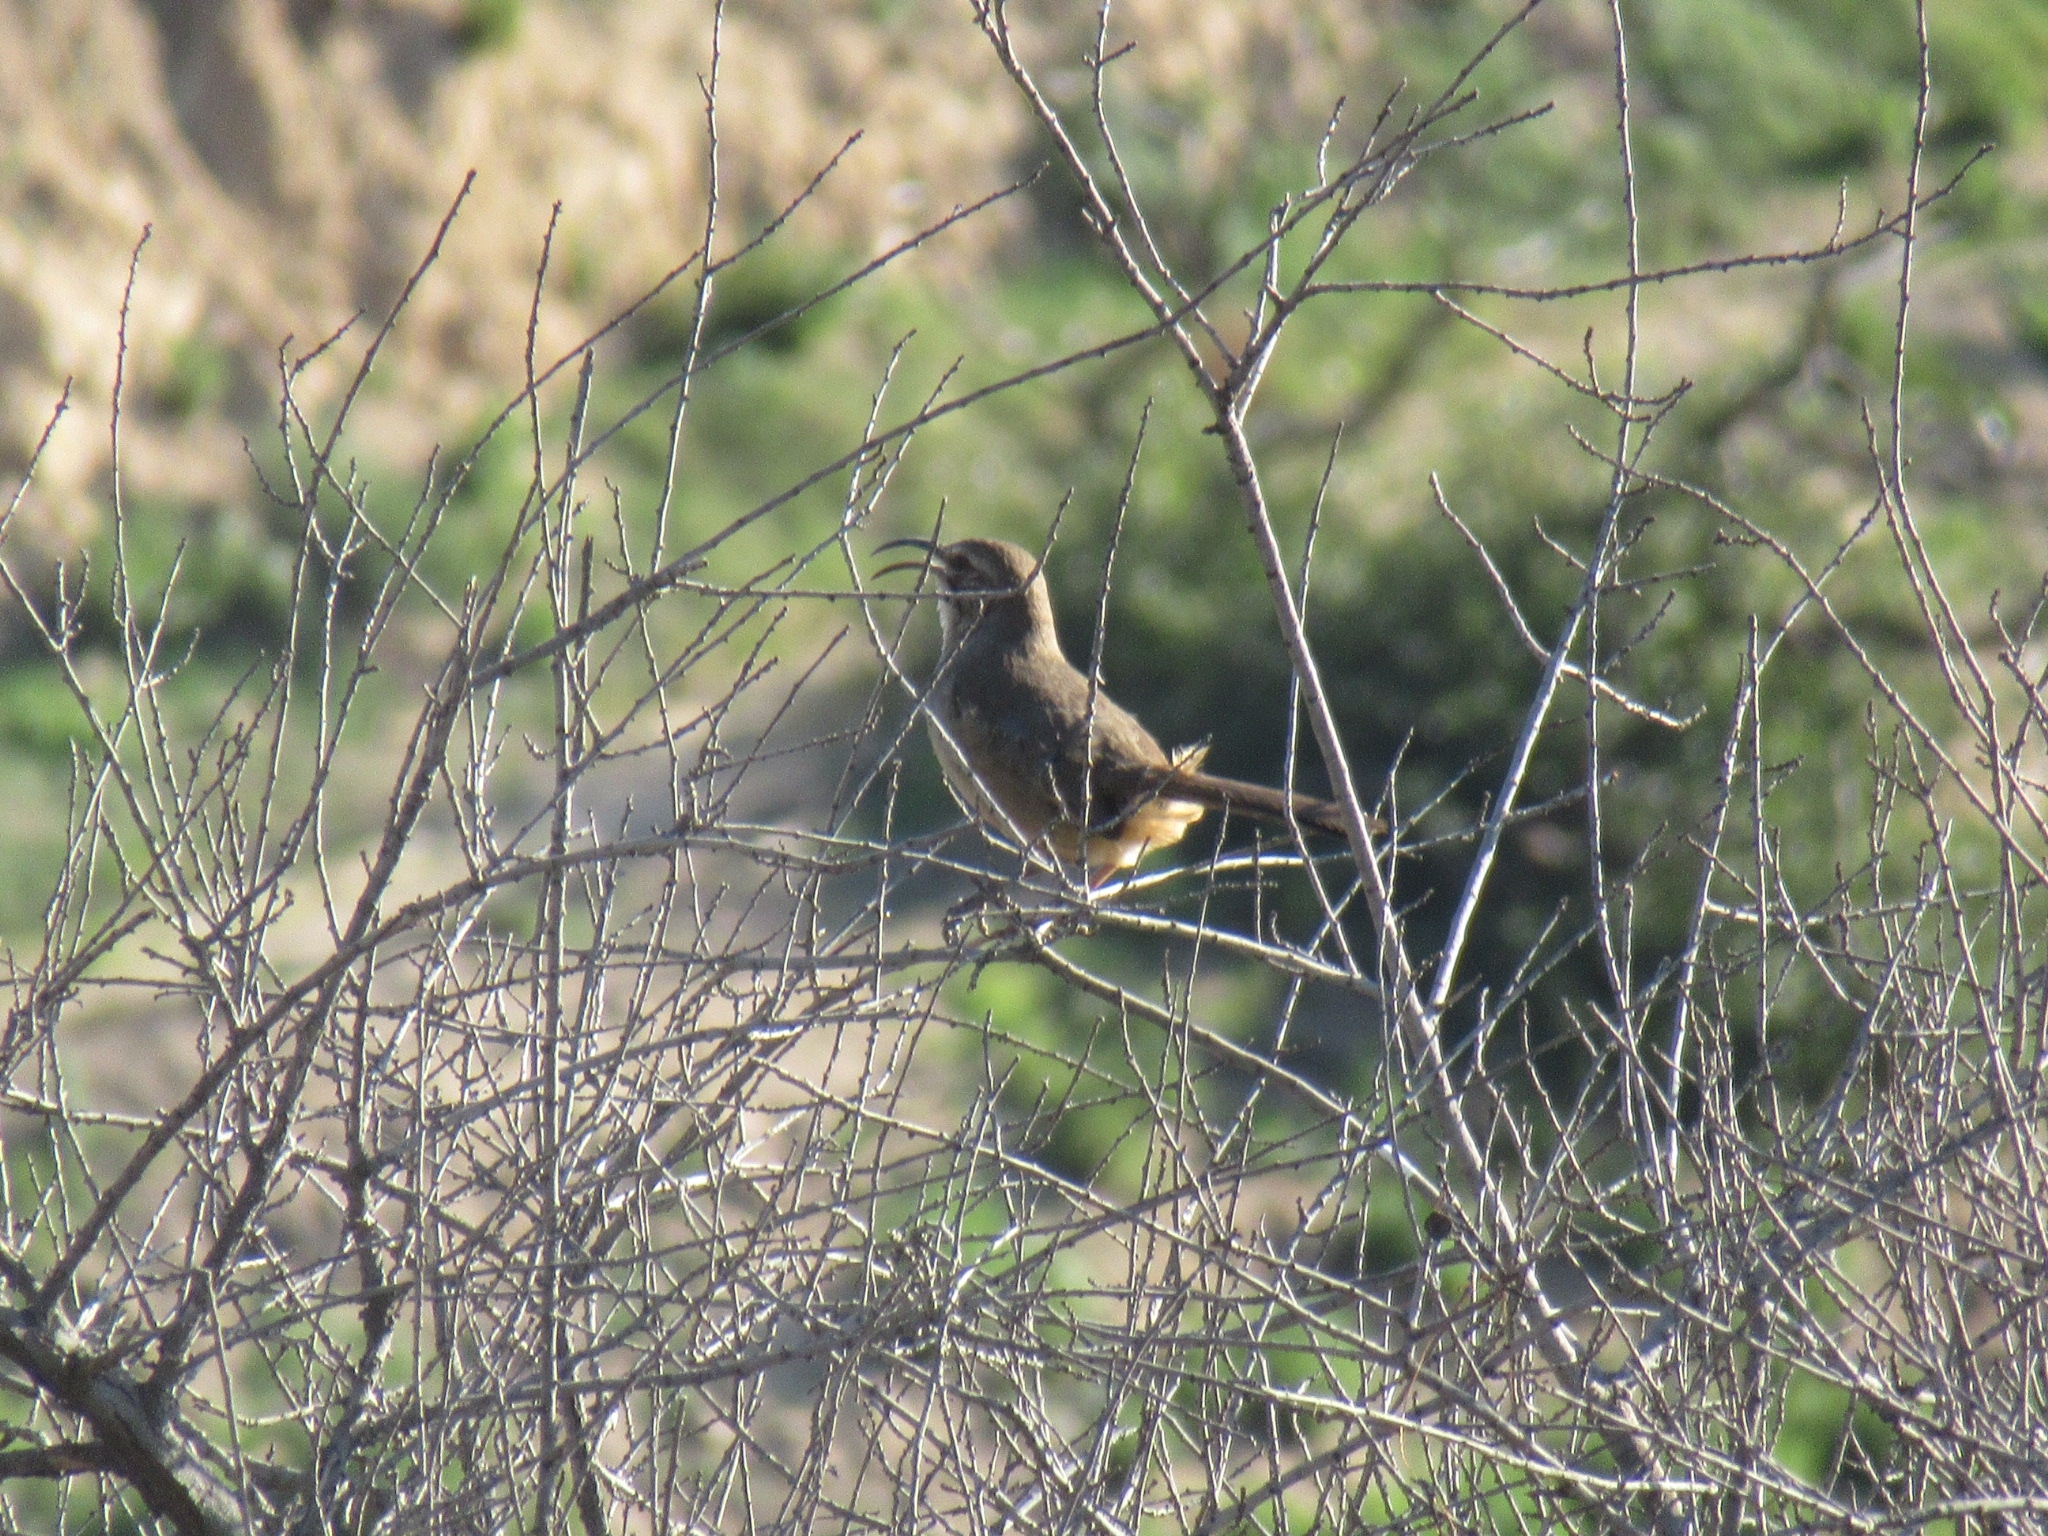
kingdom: Animalia
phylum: Chordata
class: Aves
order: Passeriformes
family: Mimidae
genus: Toxostoma
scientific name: Toxostoma redivivum
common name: California thrasher
